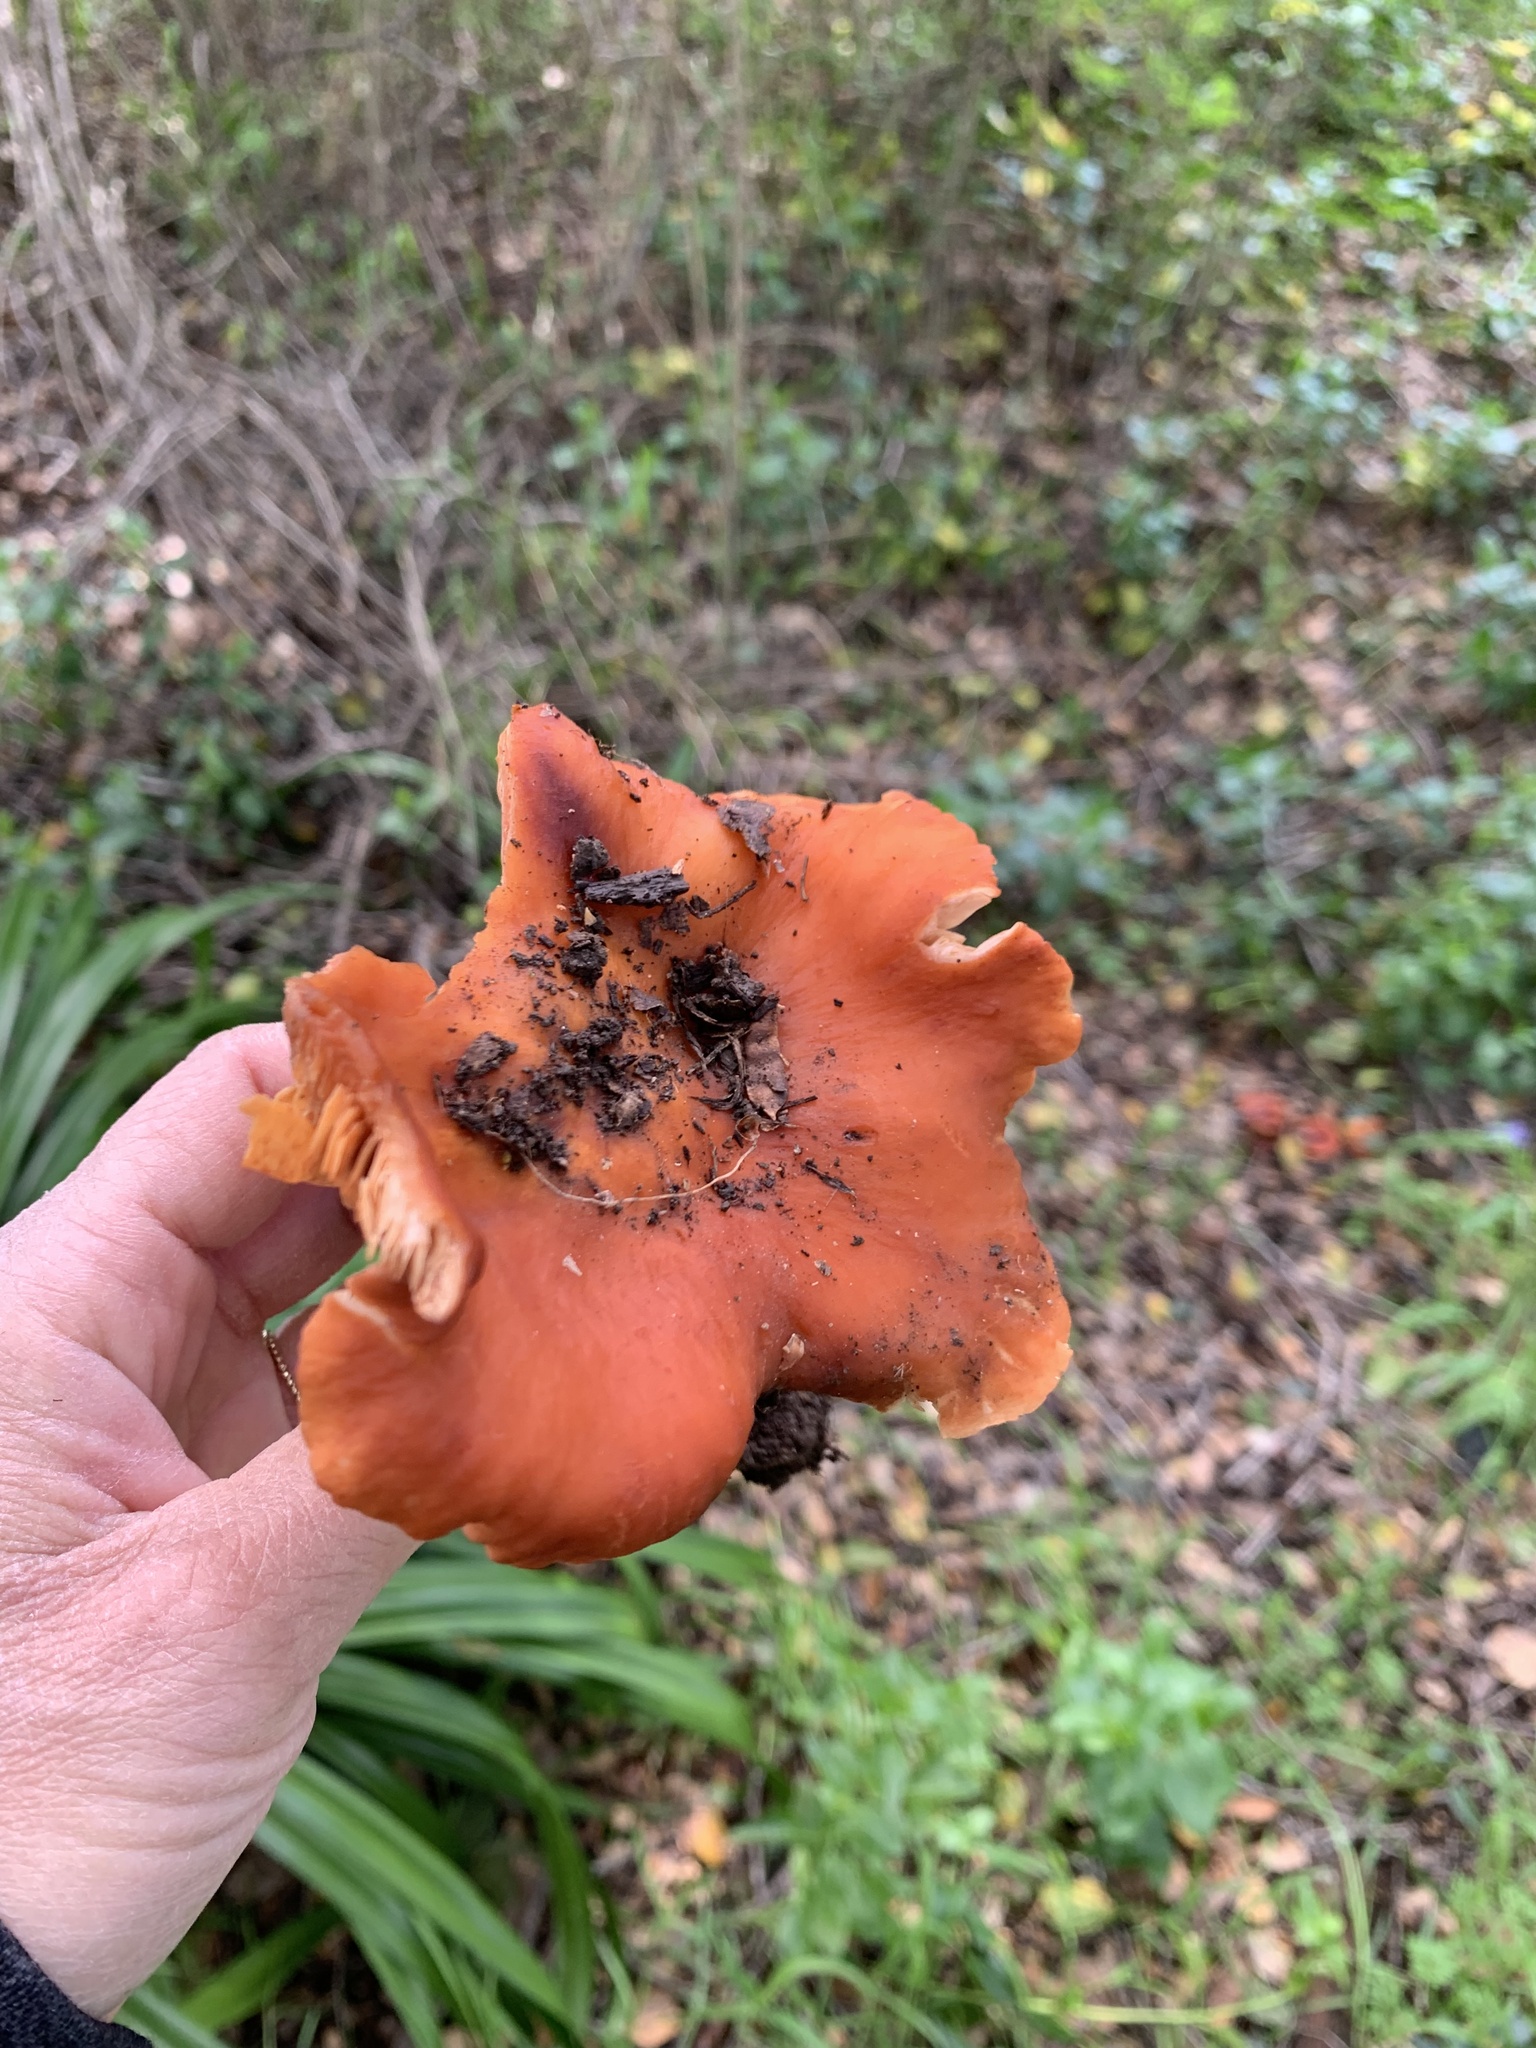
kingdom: Fungi
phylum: Basidiomycota
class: Agaricomycetes
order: Russulales
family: Russulaceae
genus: Lactarius
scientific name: Lactarius rufulus
